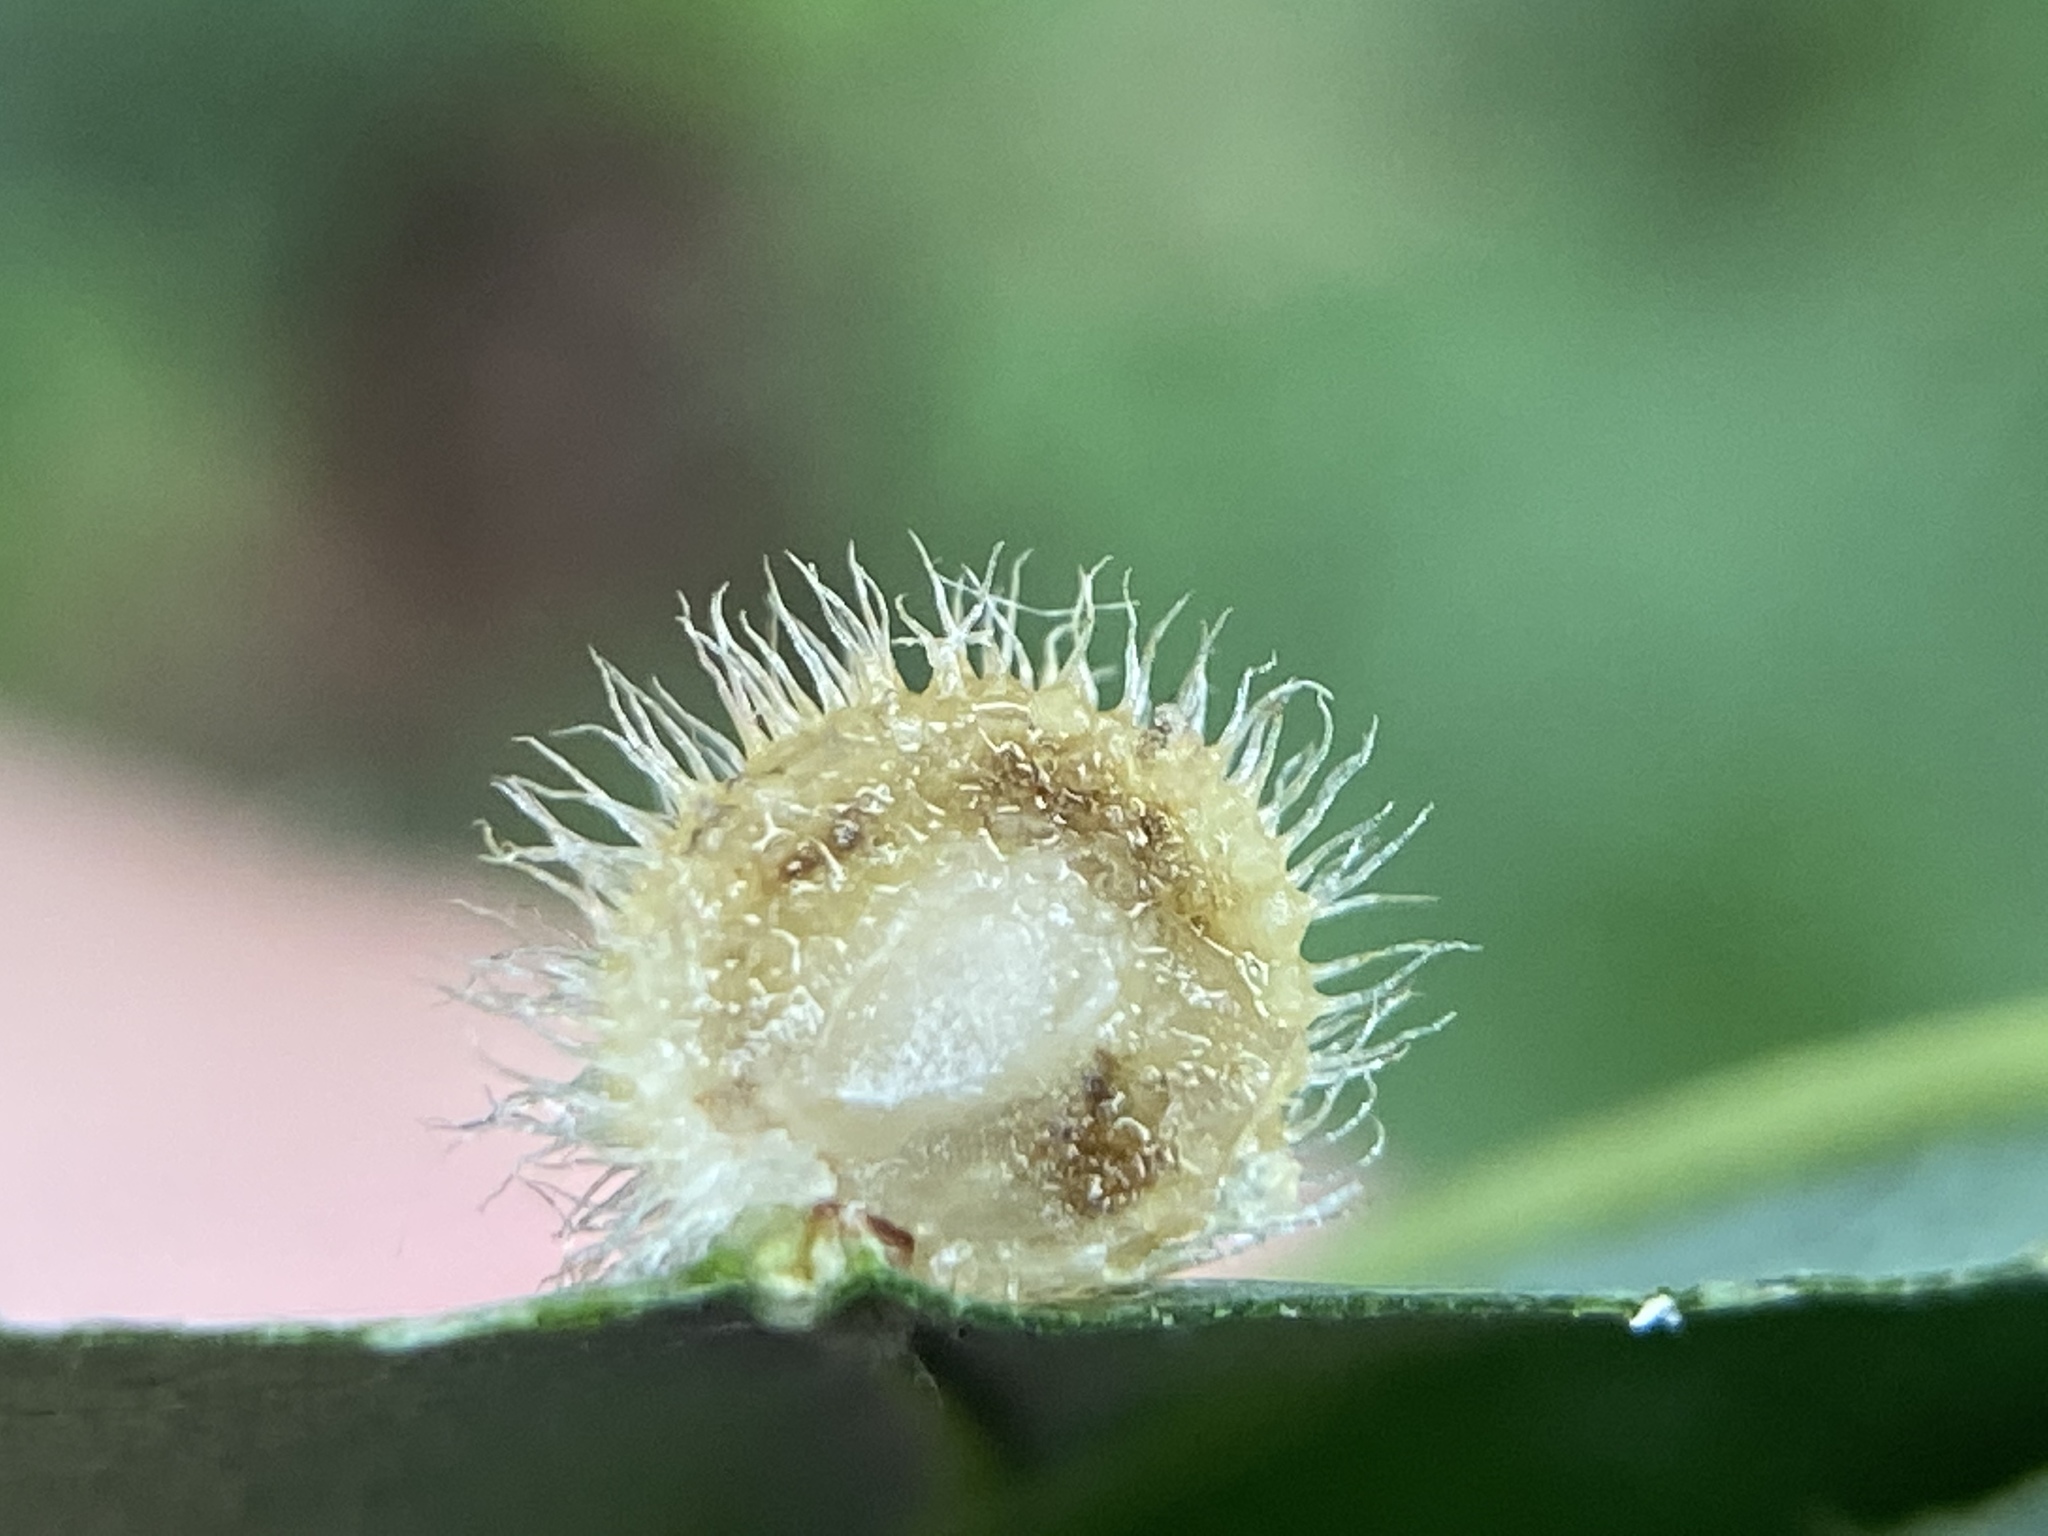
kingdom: Animalia
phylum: Arthropoda
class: Insecta
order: Hymenoptera
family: Cynipidae
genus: Acraspis
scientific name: Acraspis erinacei
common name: Hedgehog gall wasp
